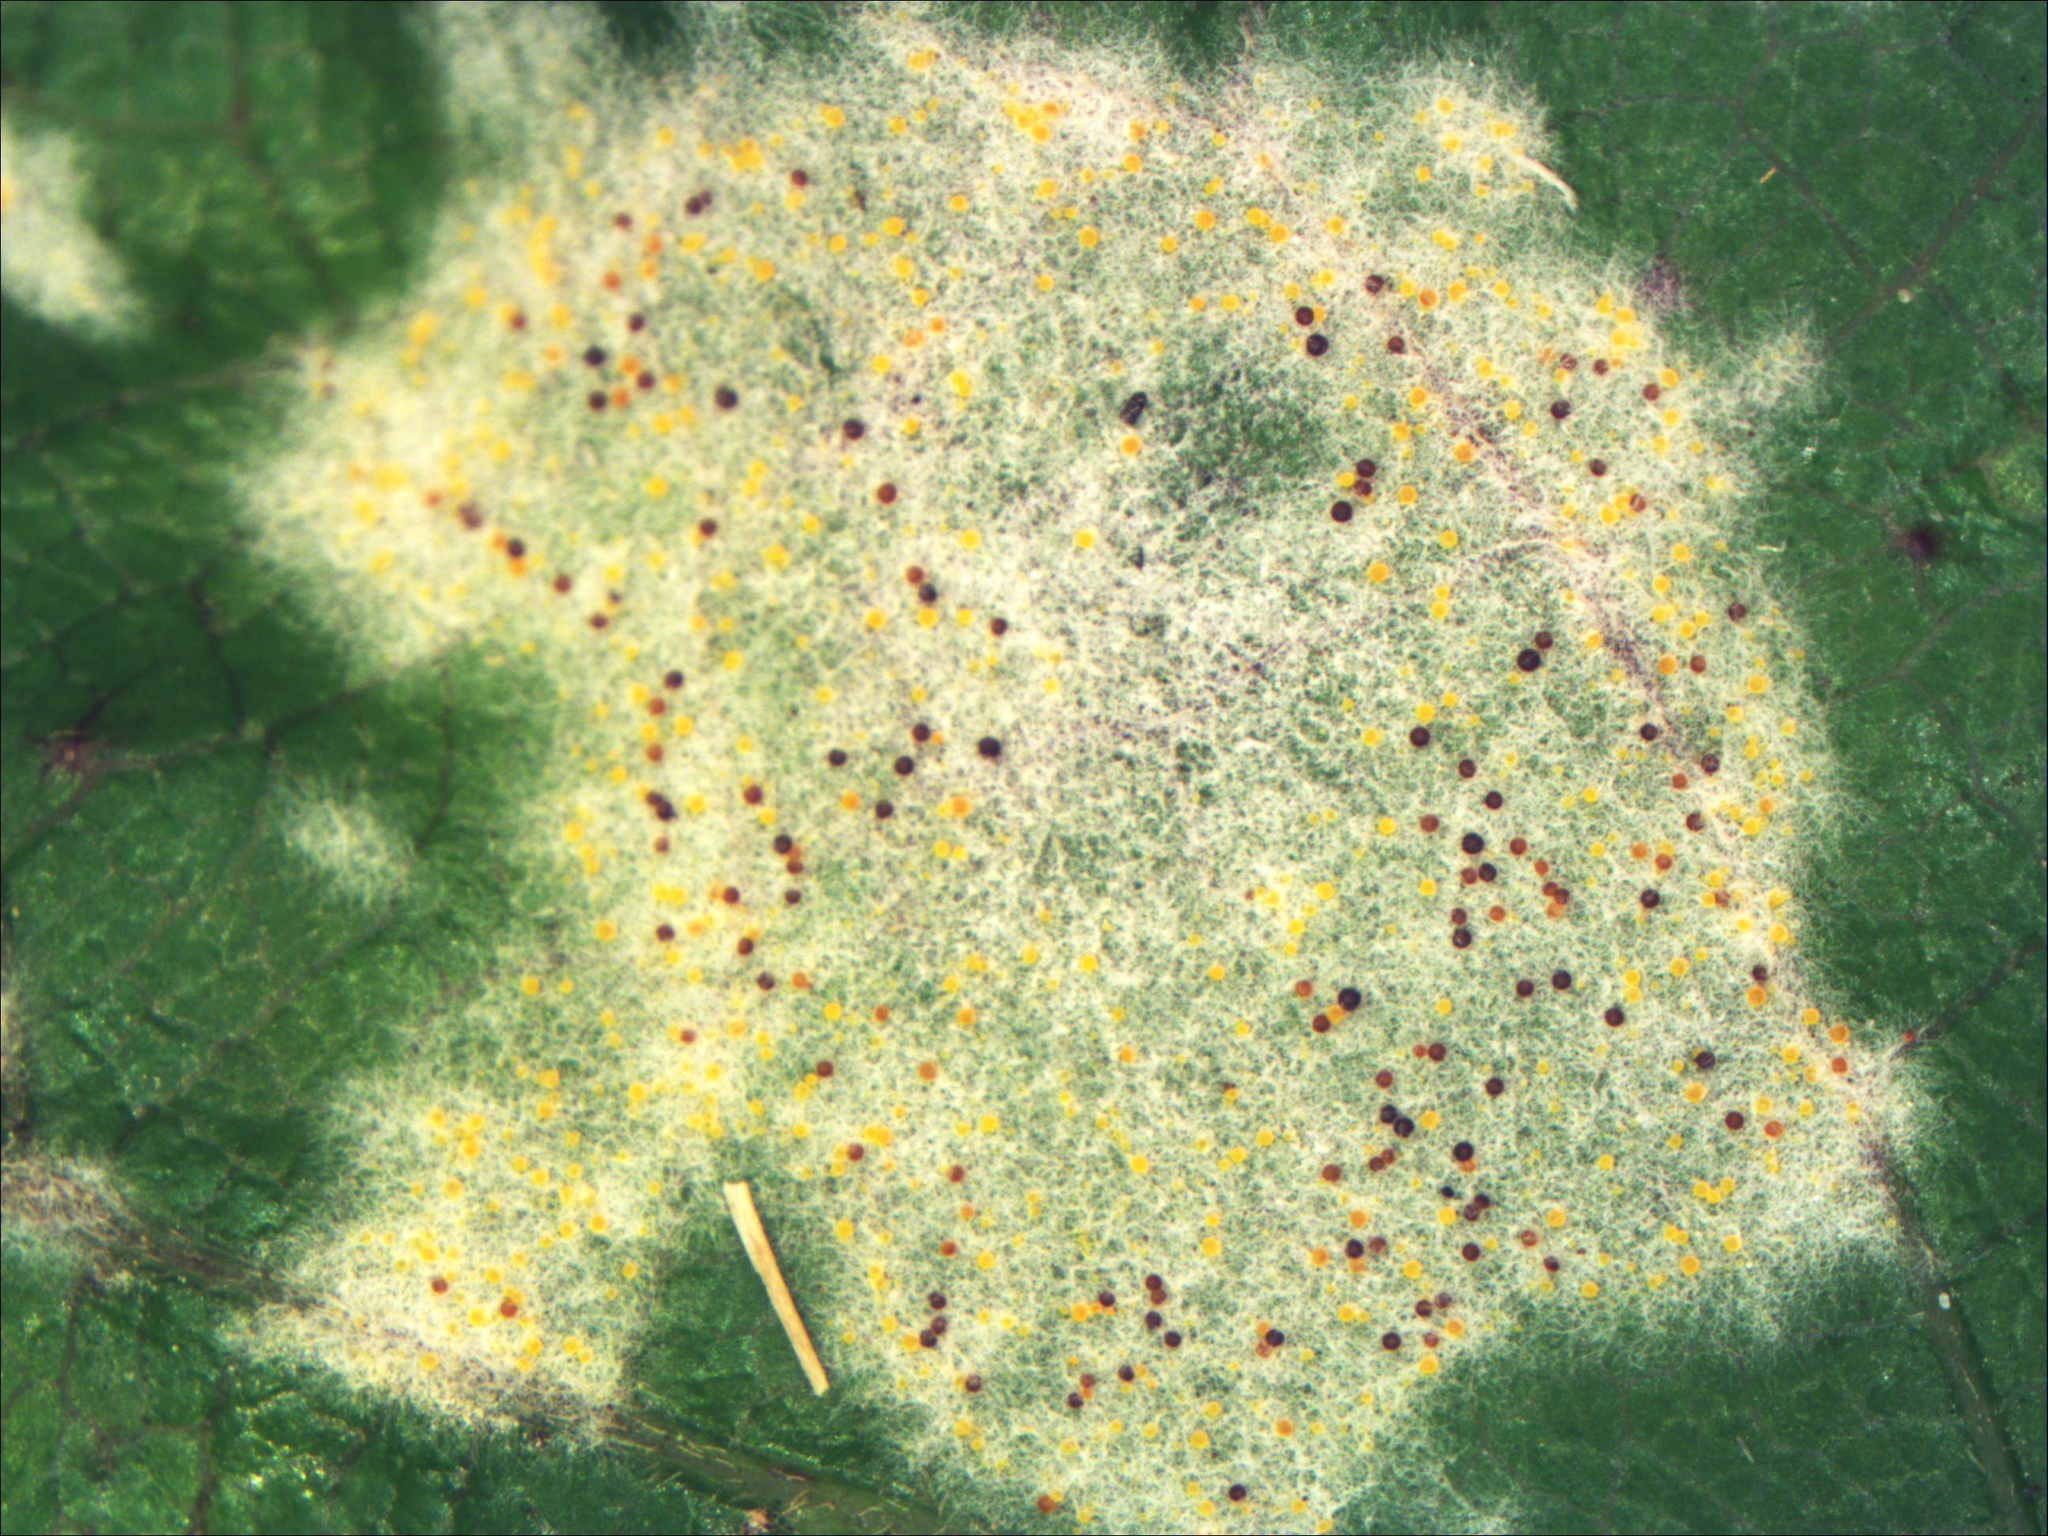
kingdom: Fungi
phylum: Ascomycota
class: Leotiomycetes
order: Helotiales
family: Erysiphaceae
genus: Erysiphe
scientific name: Erysiphe densa
